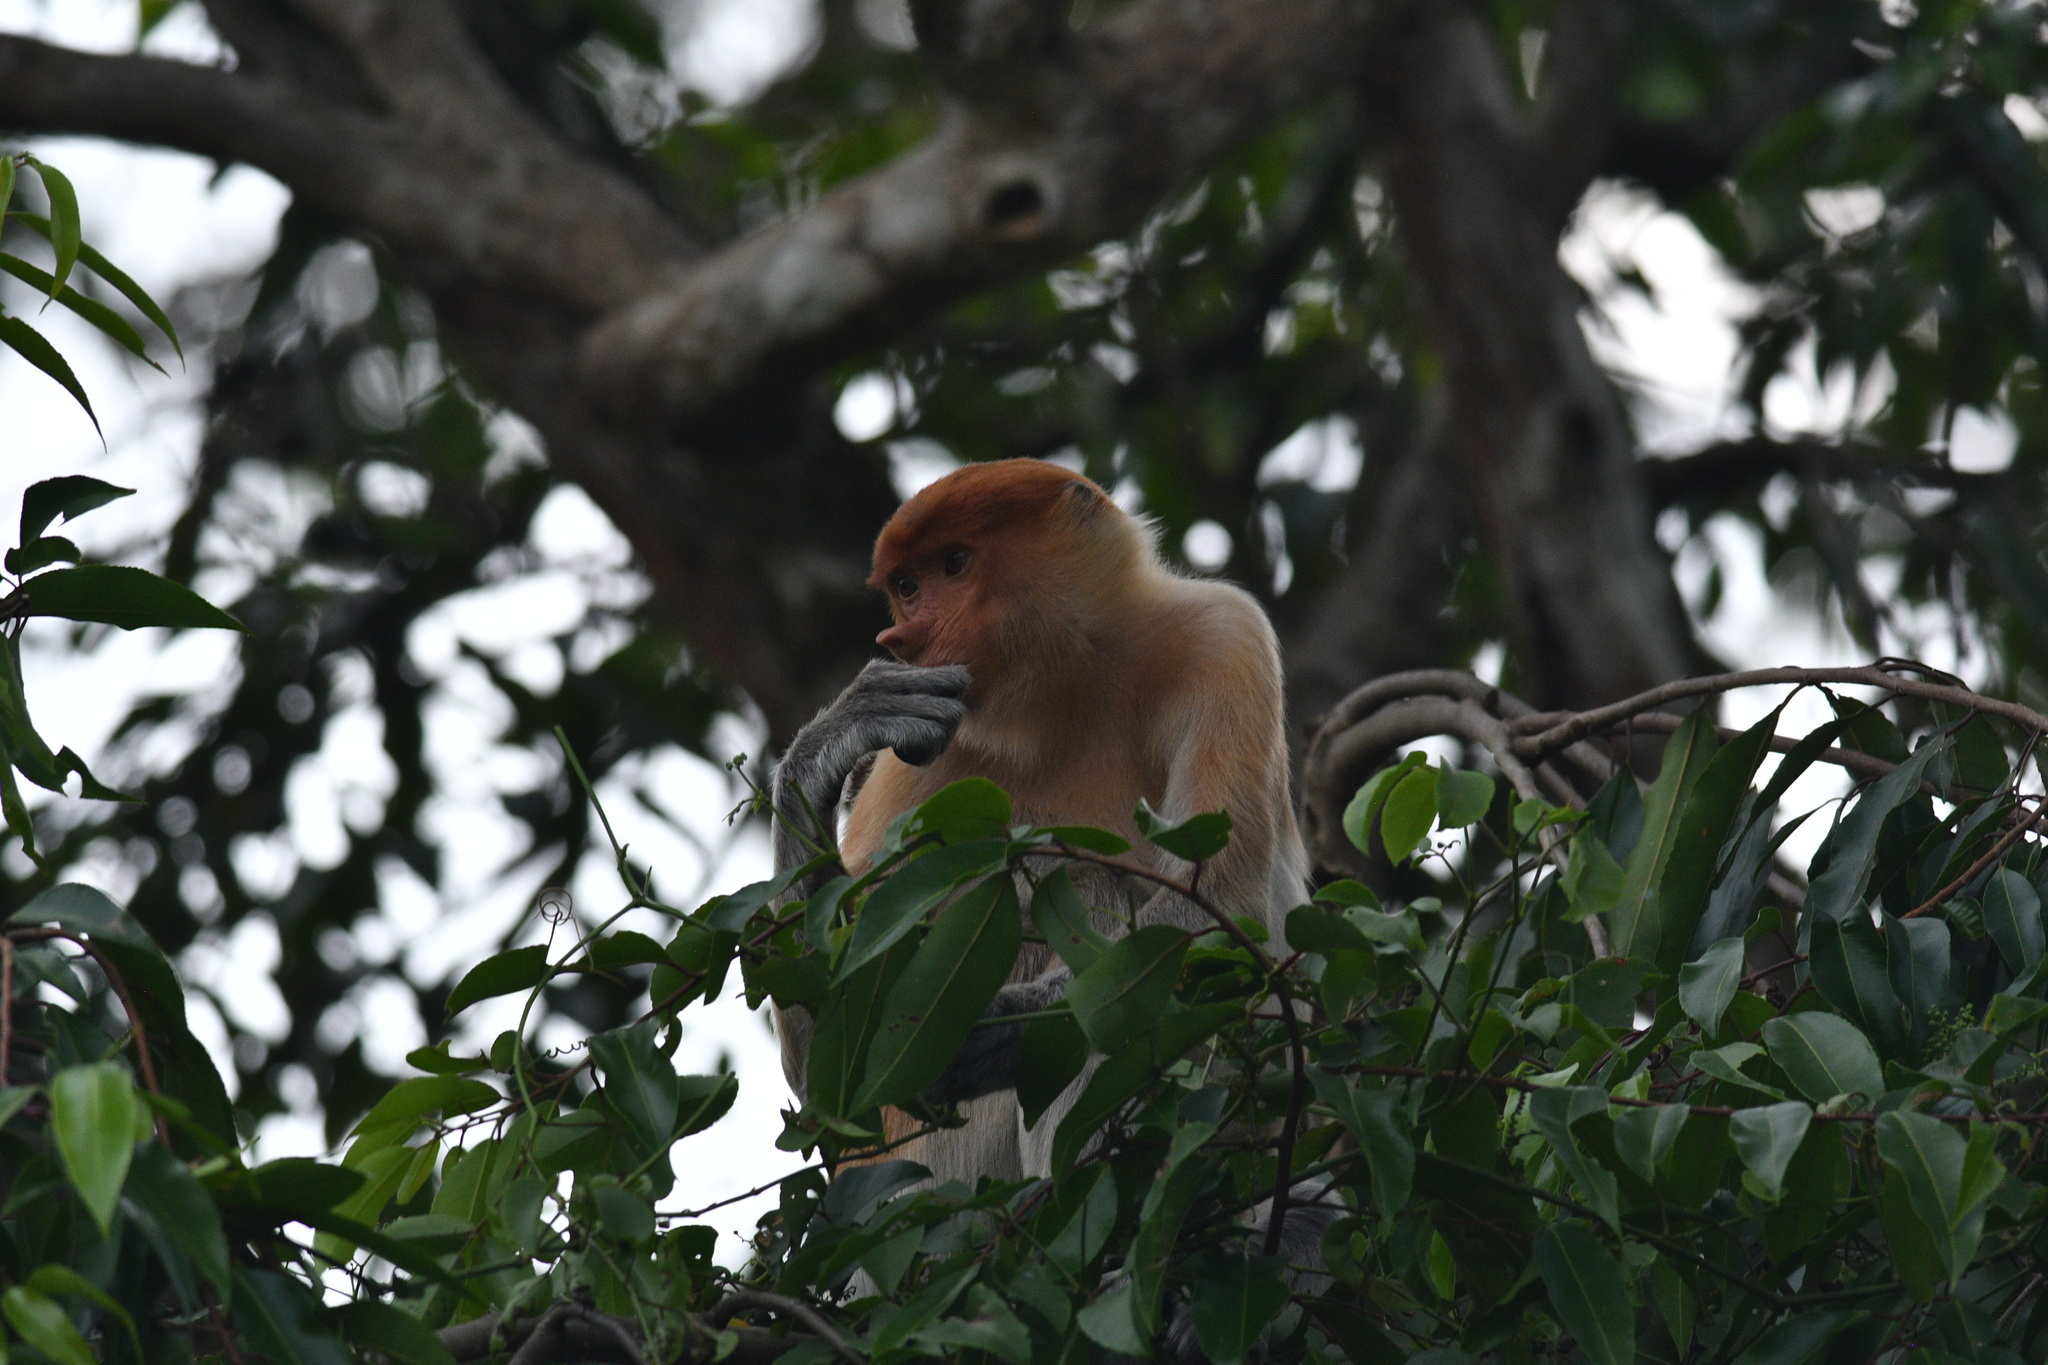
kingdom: Animalia
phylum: Chordata
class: Mammalia
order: Primates
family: Cercopithecidae
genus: Nasalis
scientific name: Nasalis larvatus
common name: Proboscis monkey
